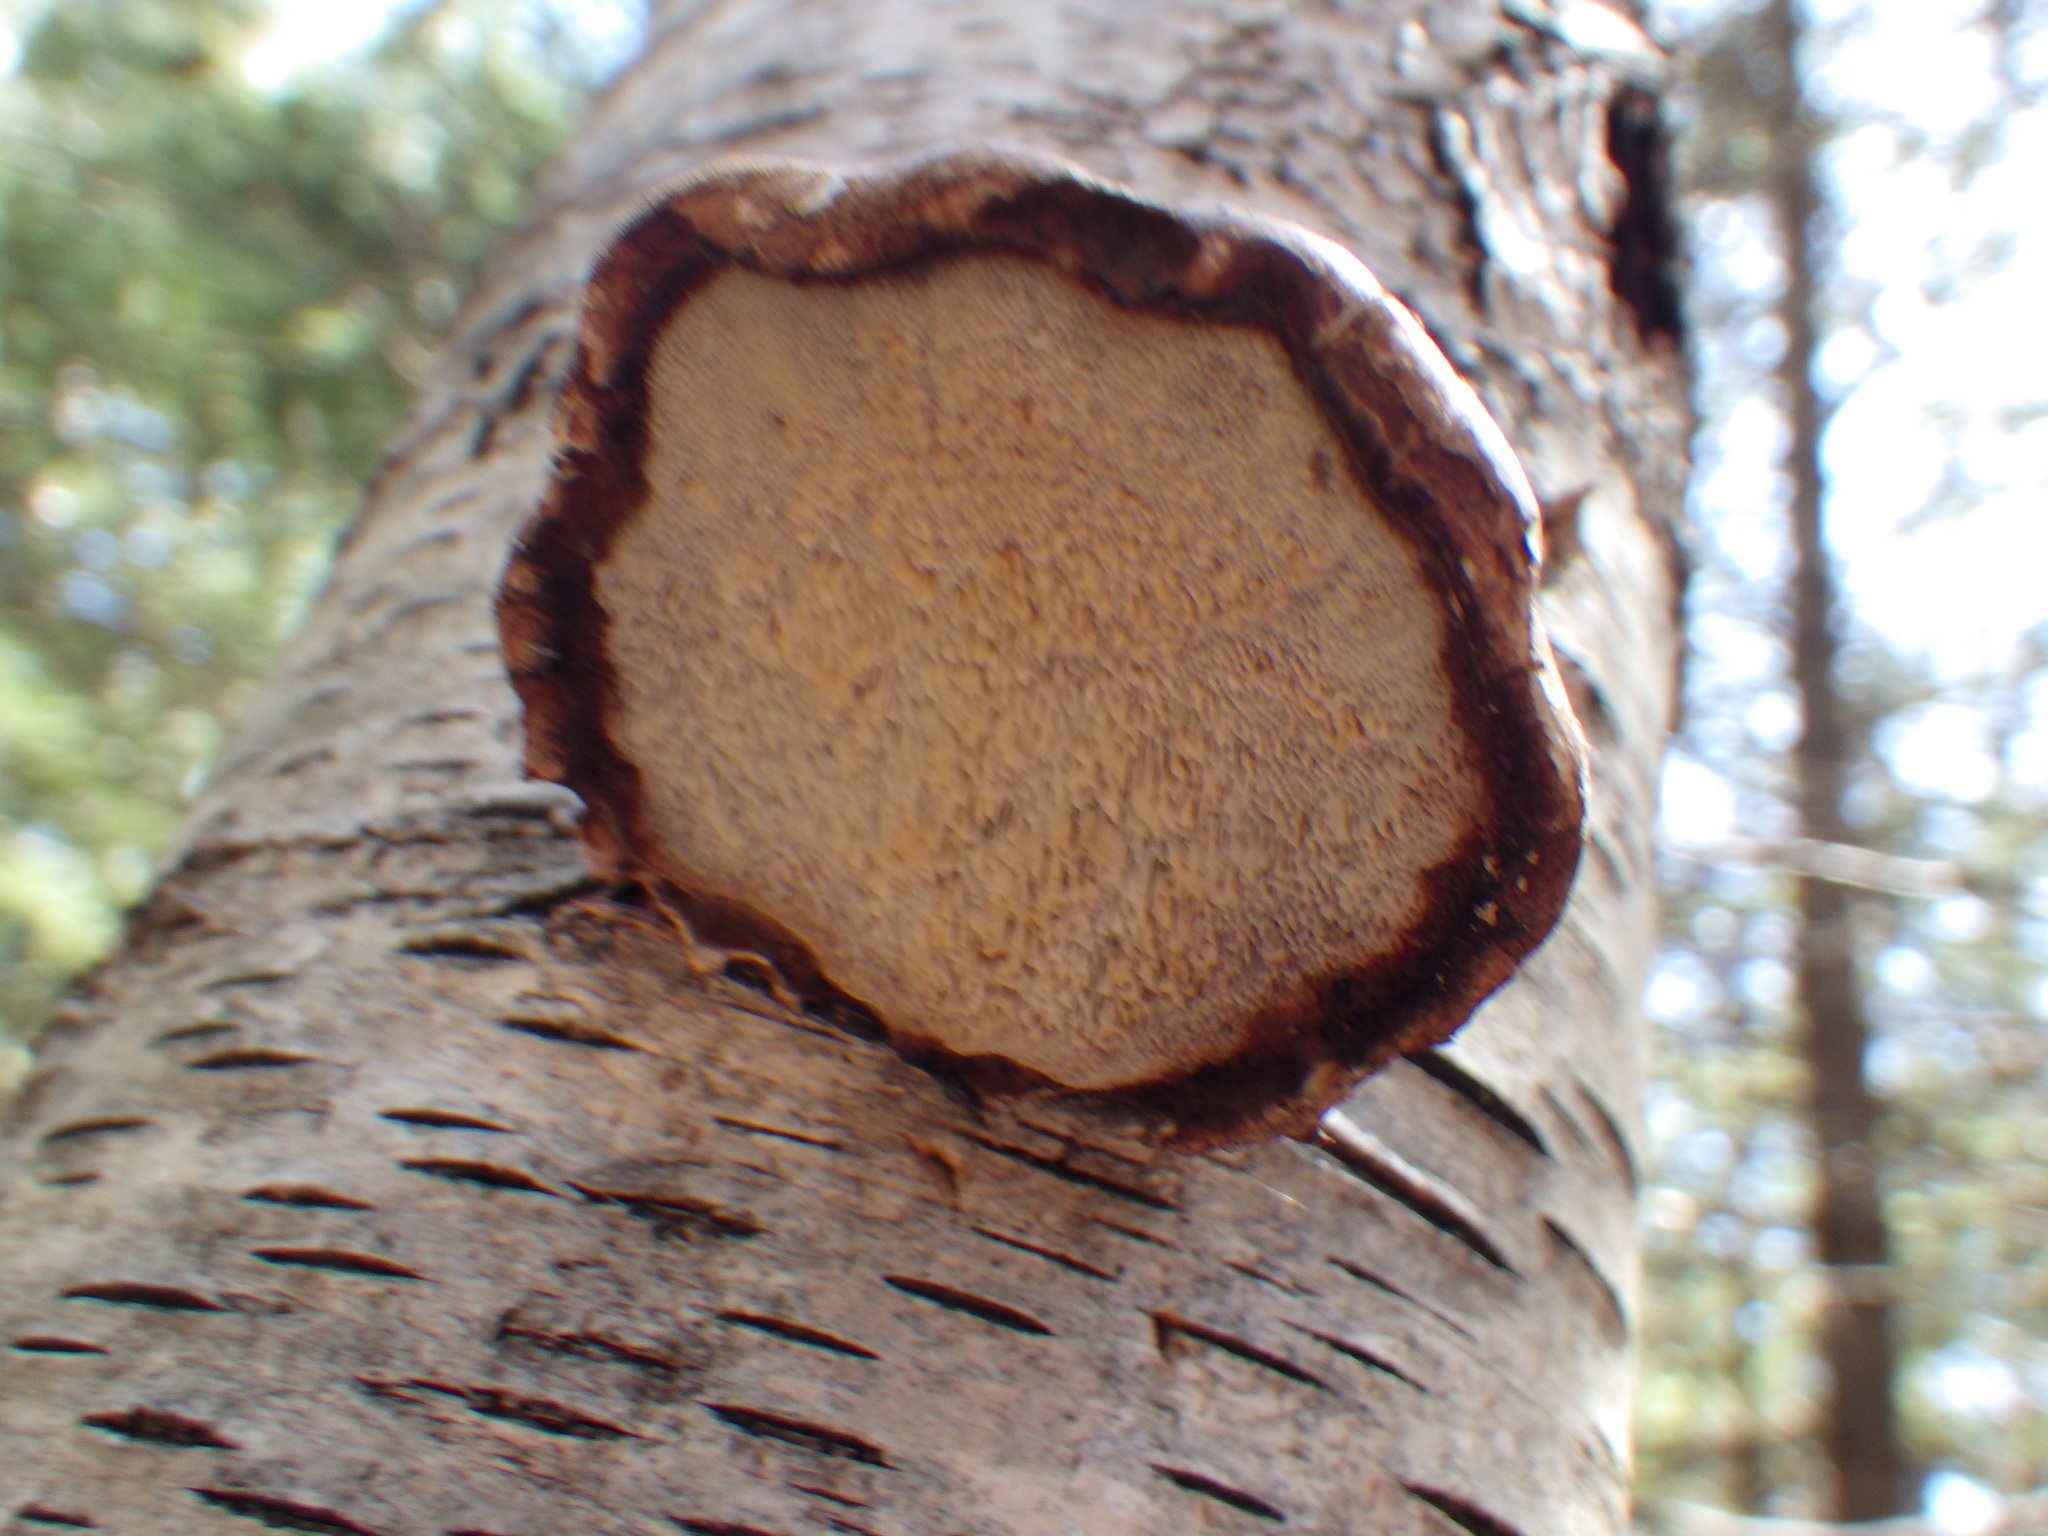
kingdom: Fungi
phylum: Basidiomycota
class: Agaricomycetes
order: Polyporales
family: Fomitopsidaceae
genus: Fomitopsis
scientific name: Fomitopsis betulina
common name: Birch polypore
